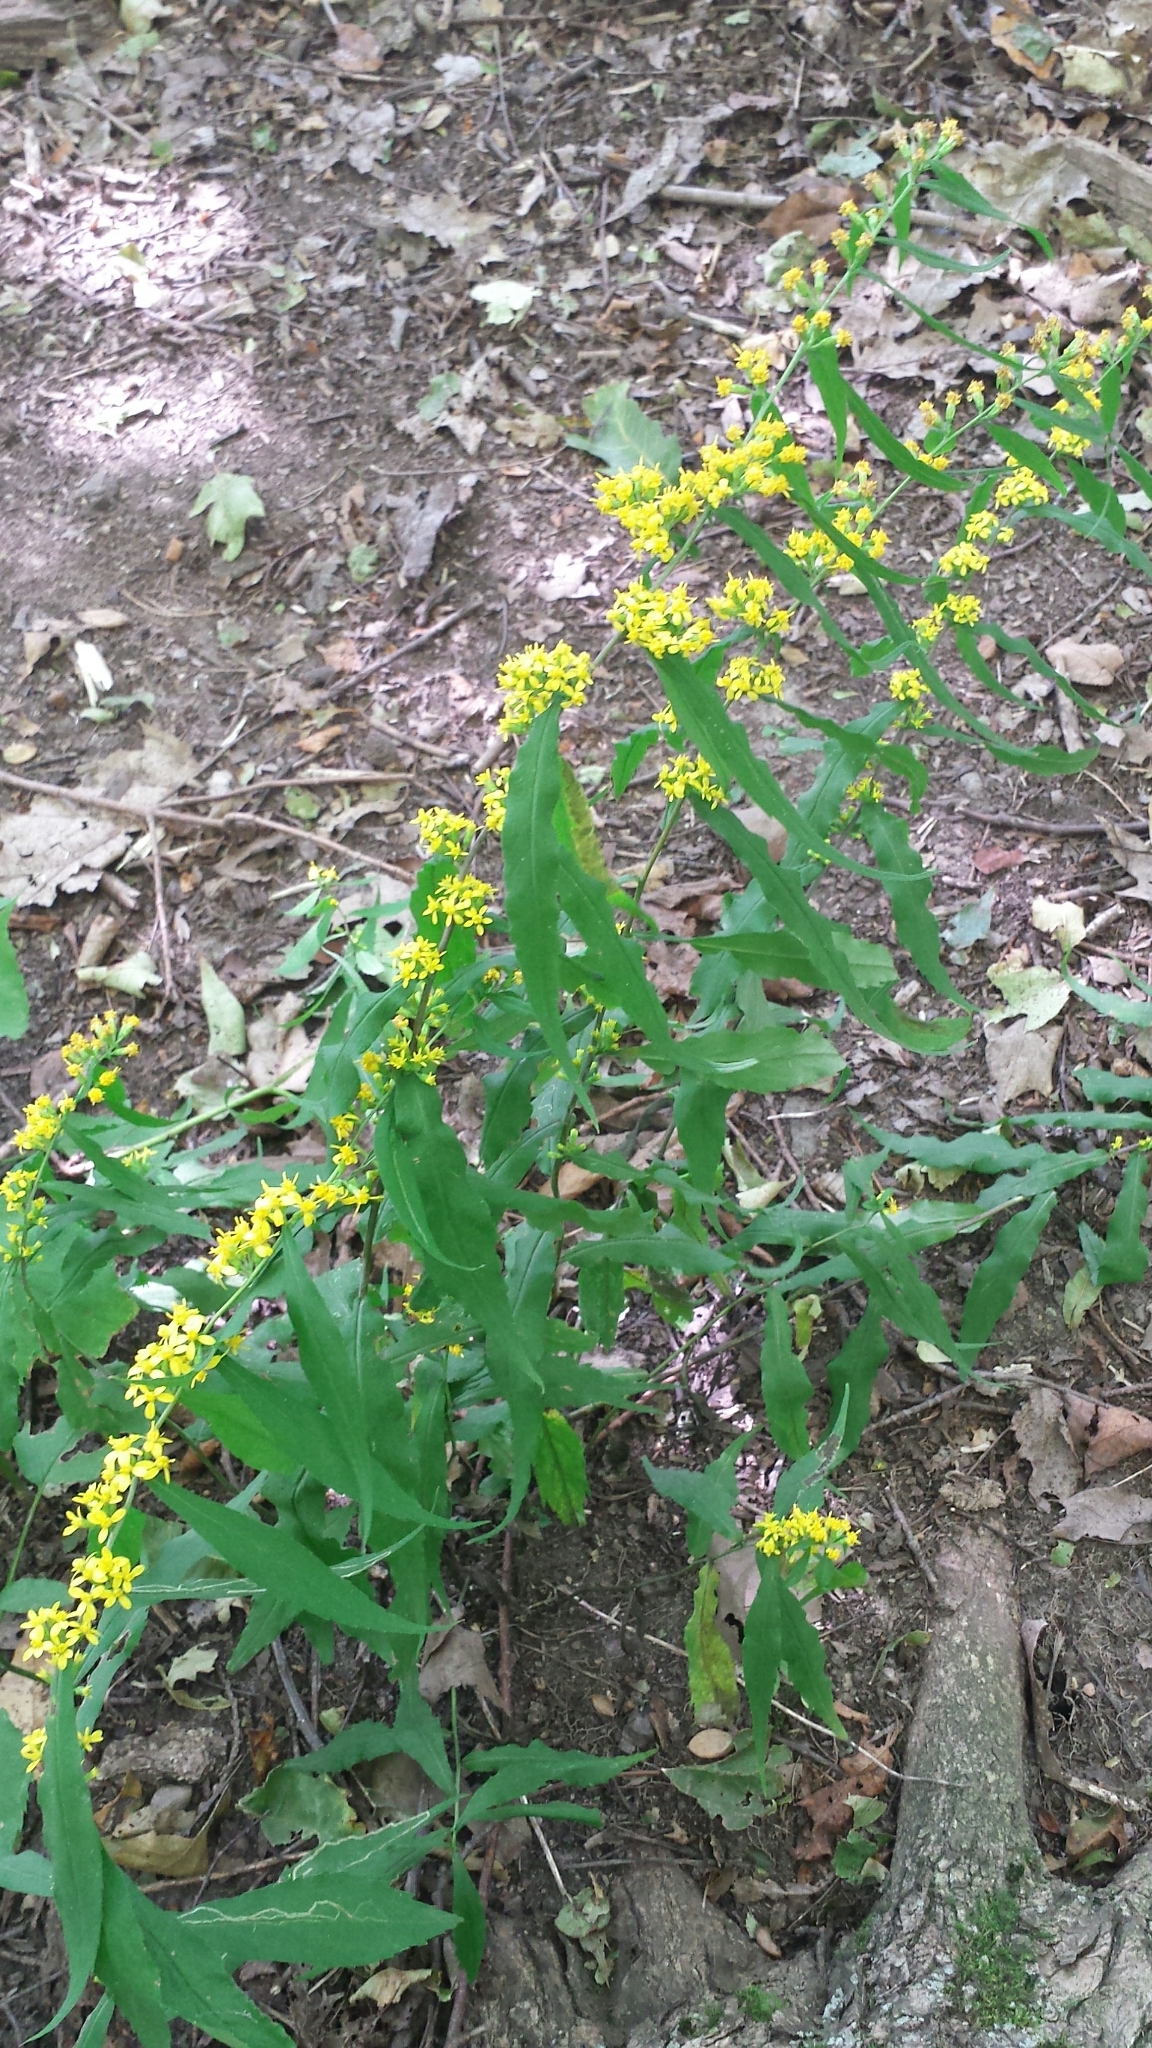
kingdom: Plantae
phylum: Tracheophyta
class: Magnoliopsida
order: Asterales
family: Asteraceae
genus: Solidago
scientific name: Solidago caesia
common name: Woodland goldenrod
